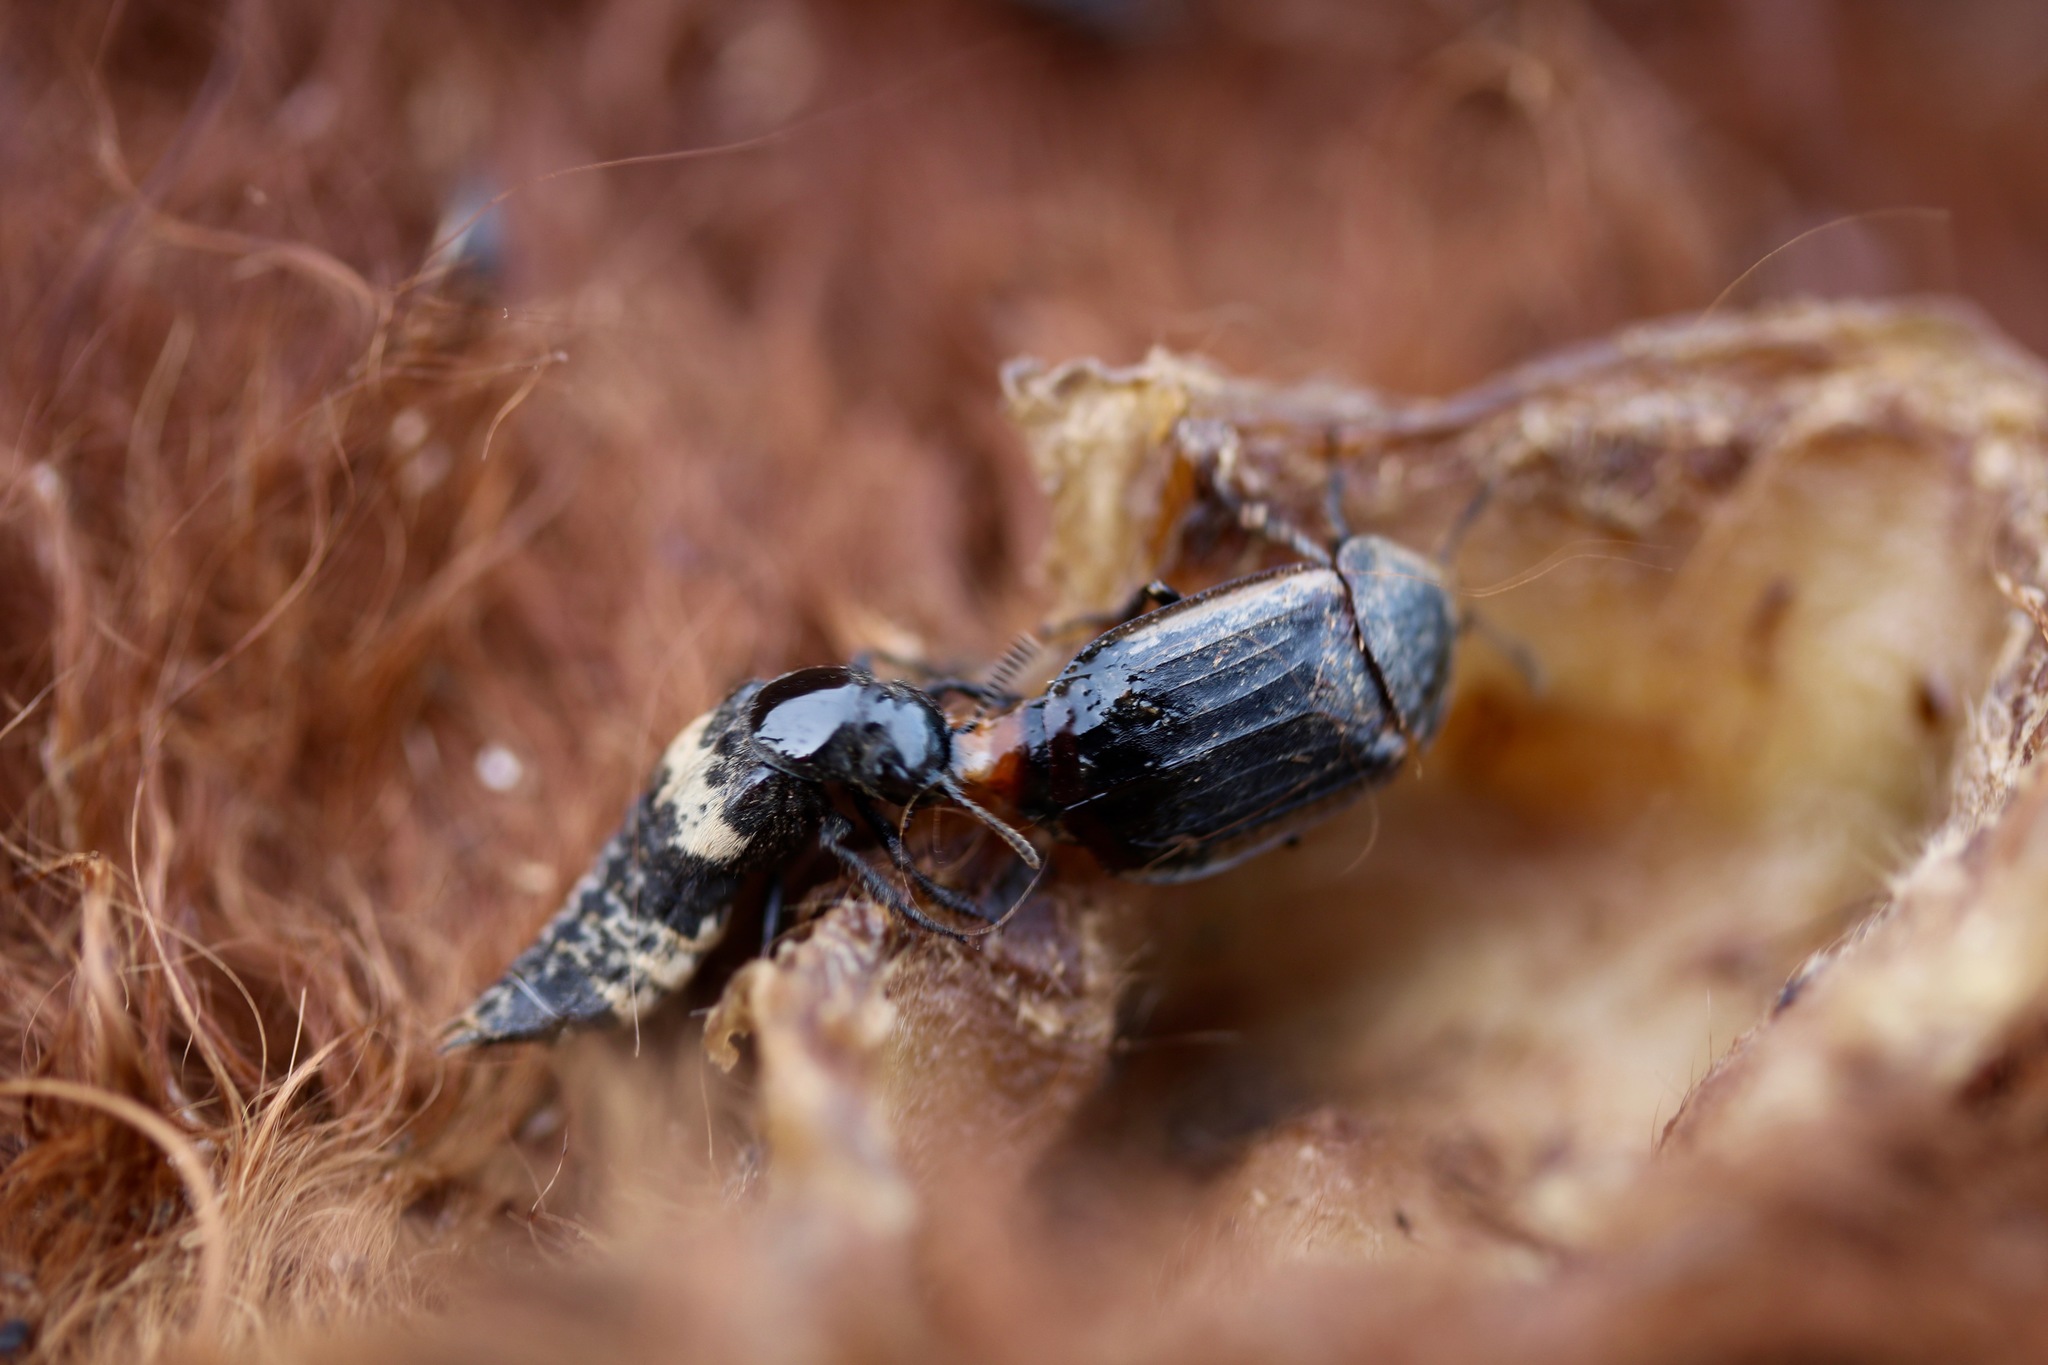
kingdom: Animalia
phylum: Arthropoda
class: Insecta
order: Coleoptera
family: Staphylinidae
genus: Creophilus
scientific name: Creophilus maxillosus
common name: Hairy rove beetle
